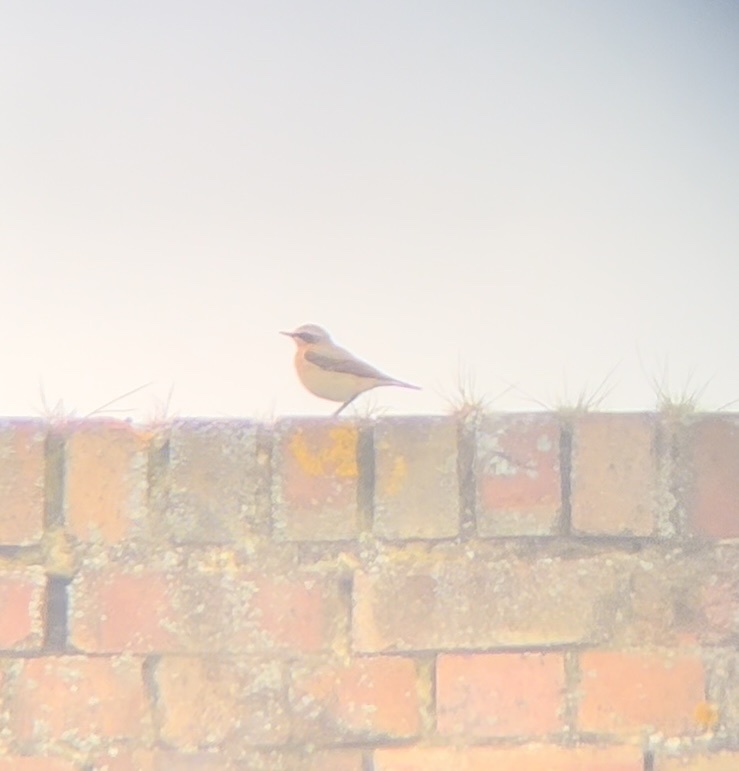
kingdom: Animalia
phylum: Chordata
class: Aves
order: Passeriformes
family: Muscicapidae
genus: Oenanthe
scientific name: Oenanthe oenanthe
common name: Northern wheatear
